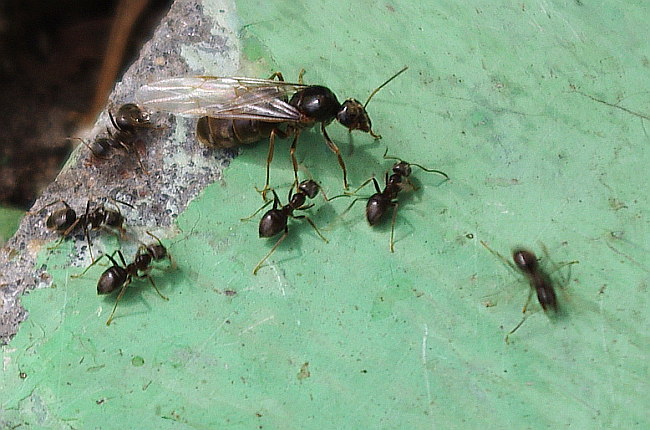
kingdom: Animalia
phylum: Arthropoda
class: Insecta
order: Hymenoptera
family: Formicidae
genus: Lasius
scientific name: Lasius niger
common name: Small black ant
